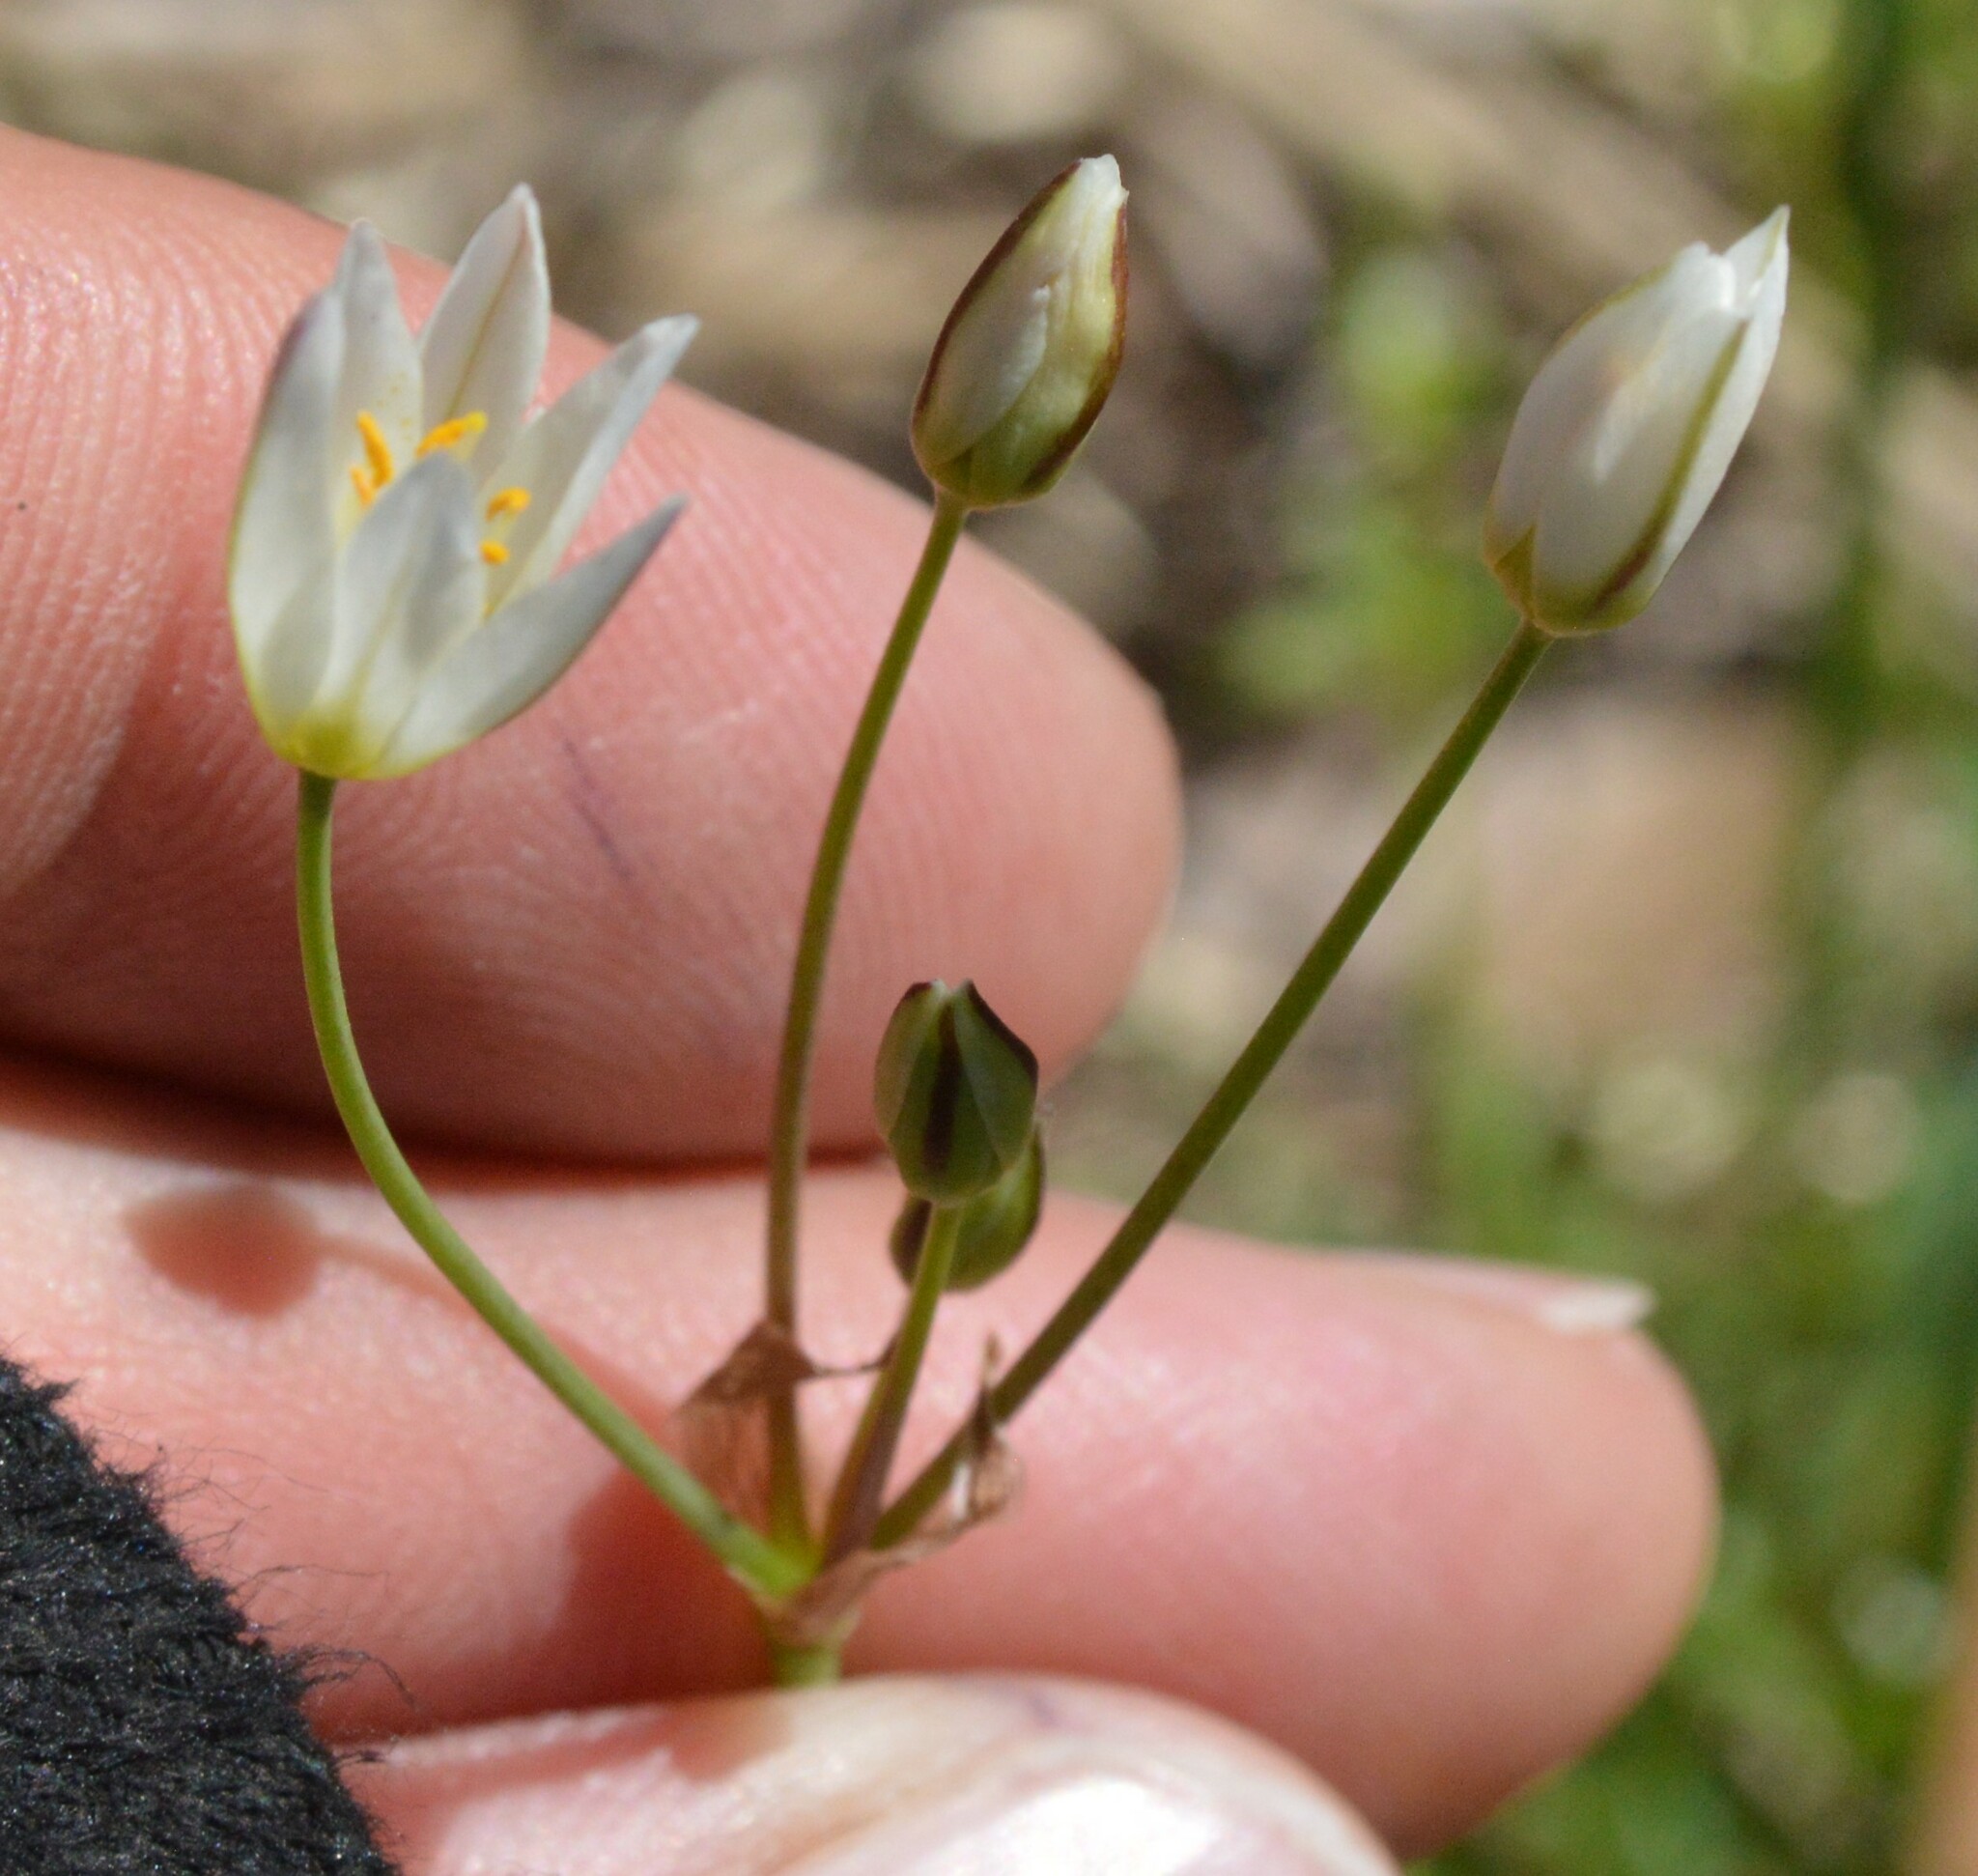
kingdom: Plantae
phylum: Tracheophyta
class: Liliopsida
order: Asparagales
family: Amaryllidaceae
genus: Nothoscordum
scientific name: Nothoscordum bivalve
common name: Crow-poison
